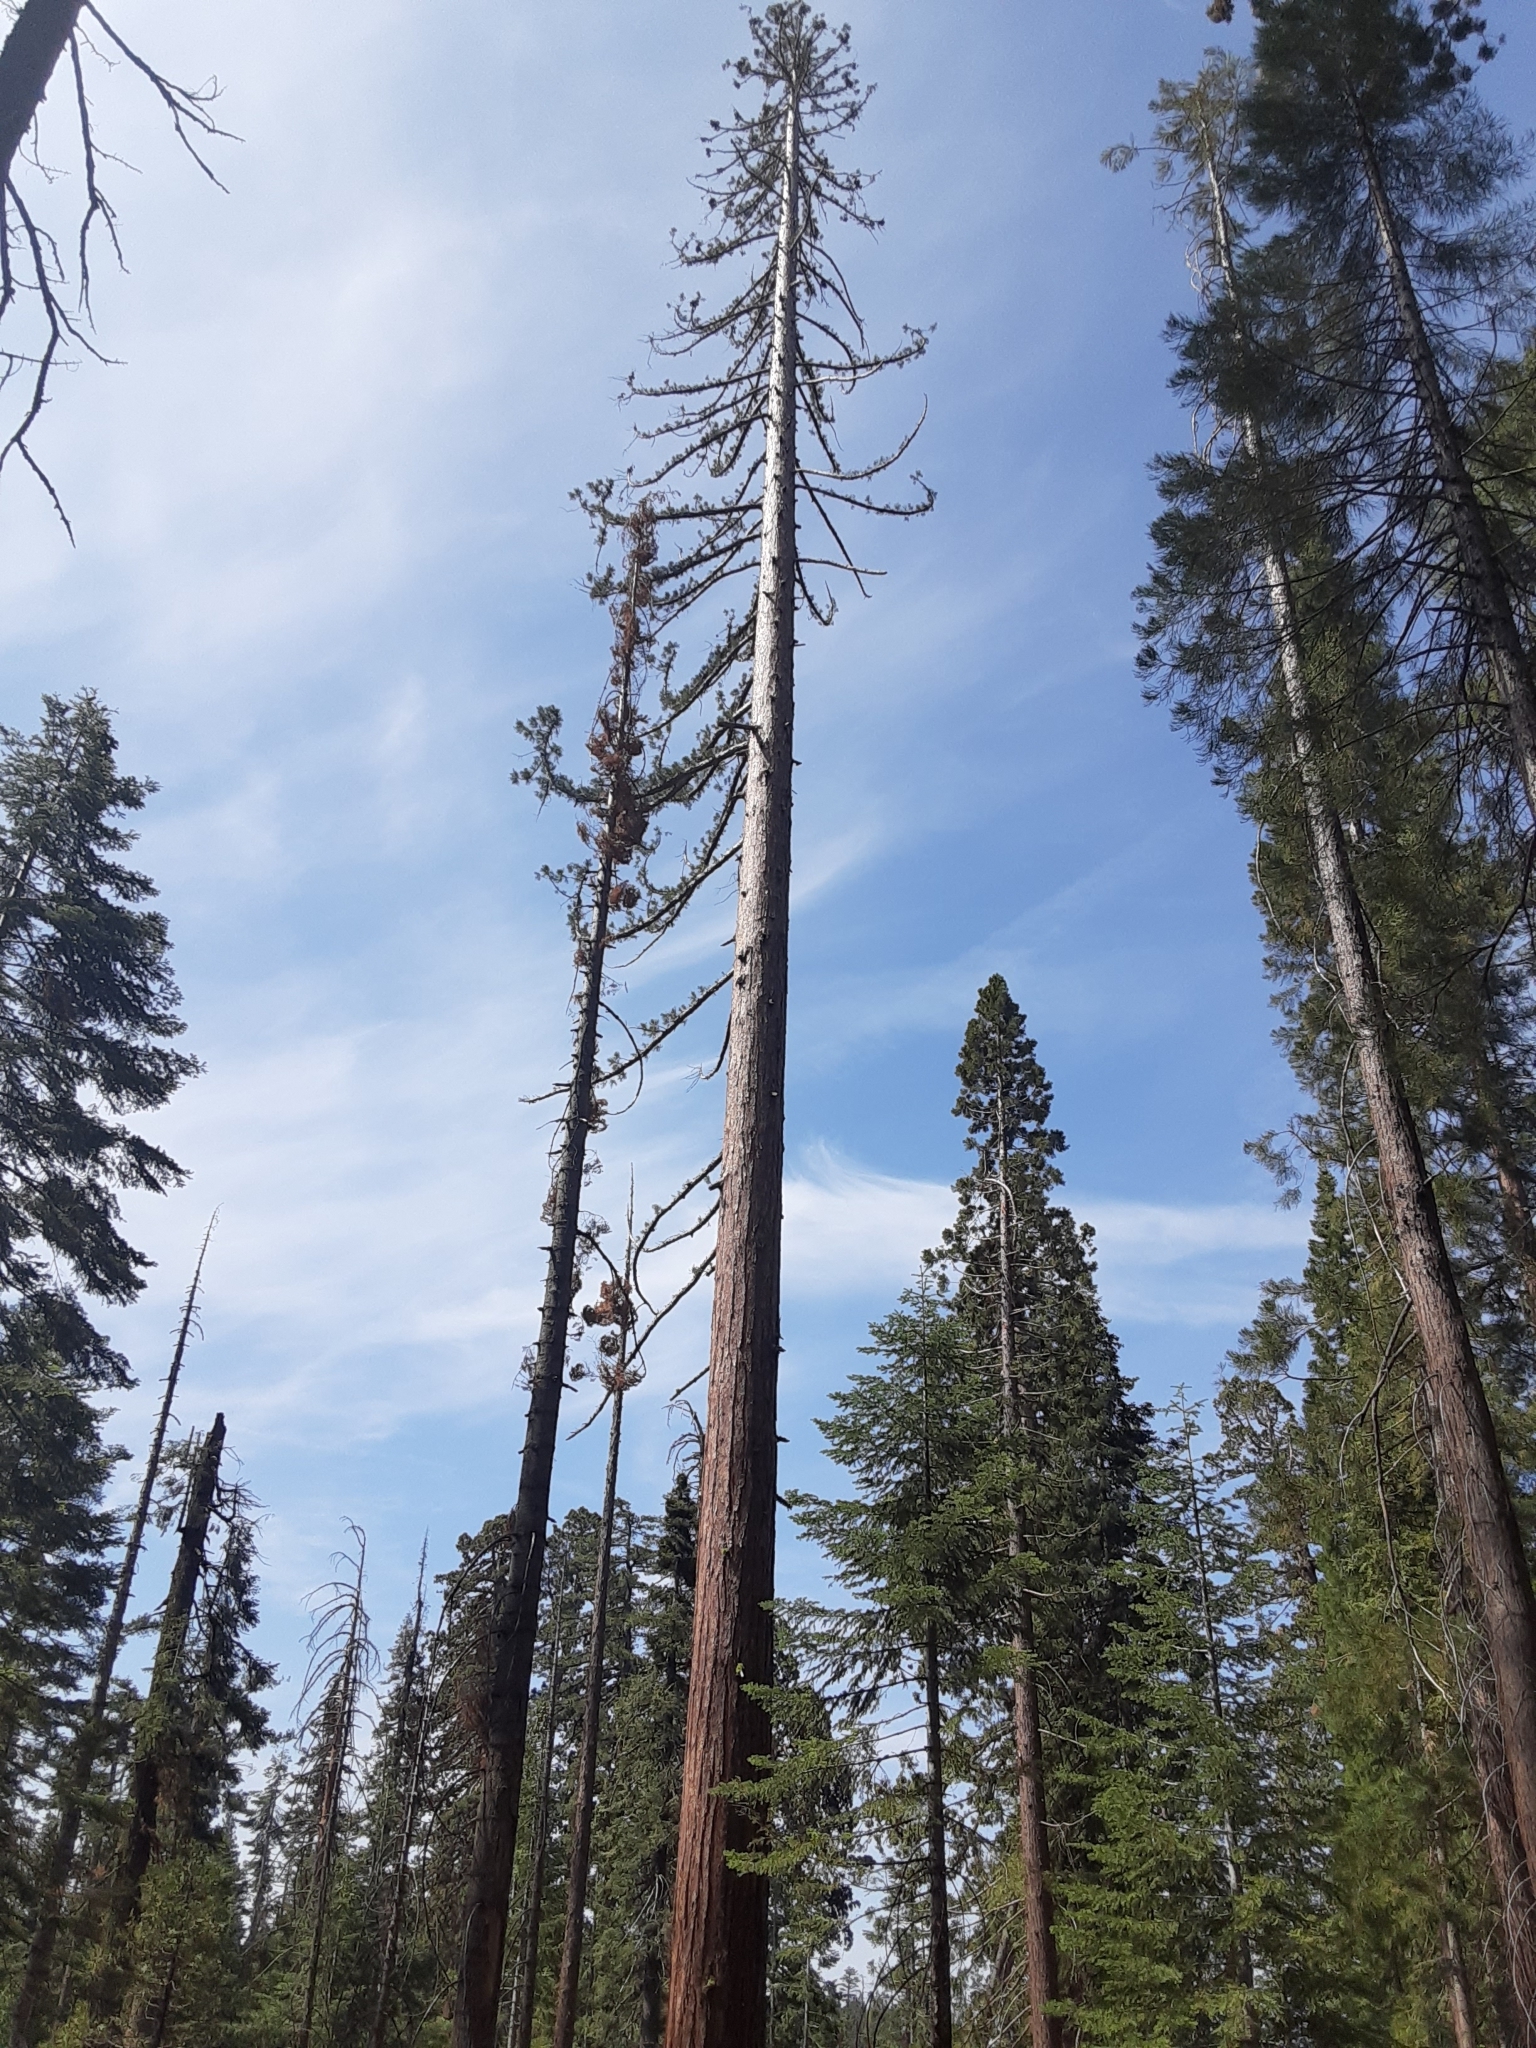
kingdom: Plantae
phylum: Tracheophyta
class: Pinopsida
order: Pinales
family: Cupressaceae
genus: Sequoiadendron
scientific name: Sequoiadendron giganteum
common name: Wellingtonia
